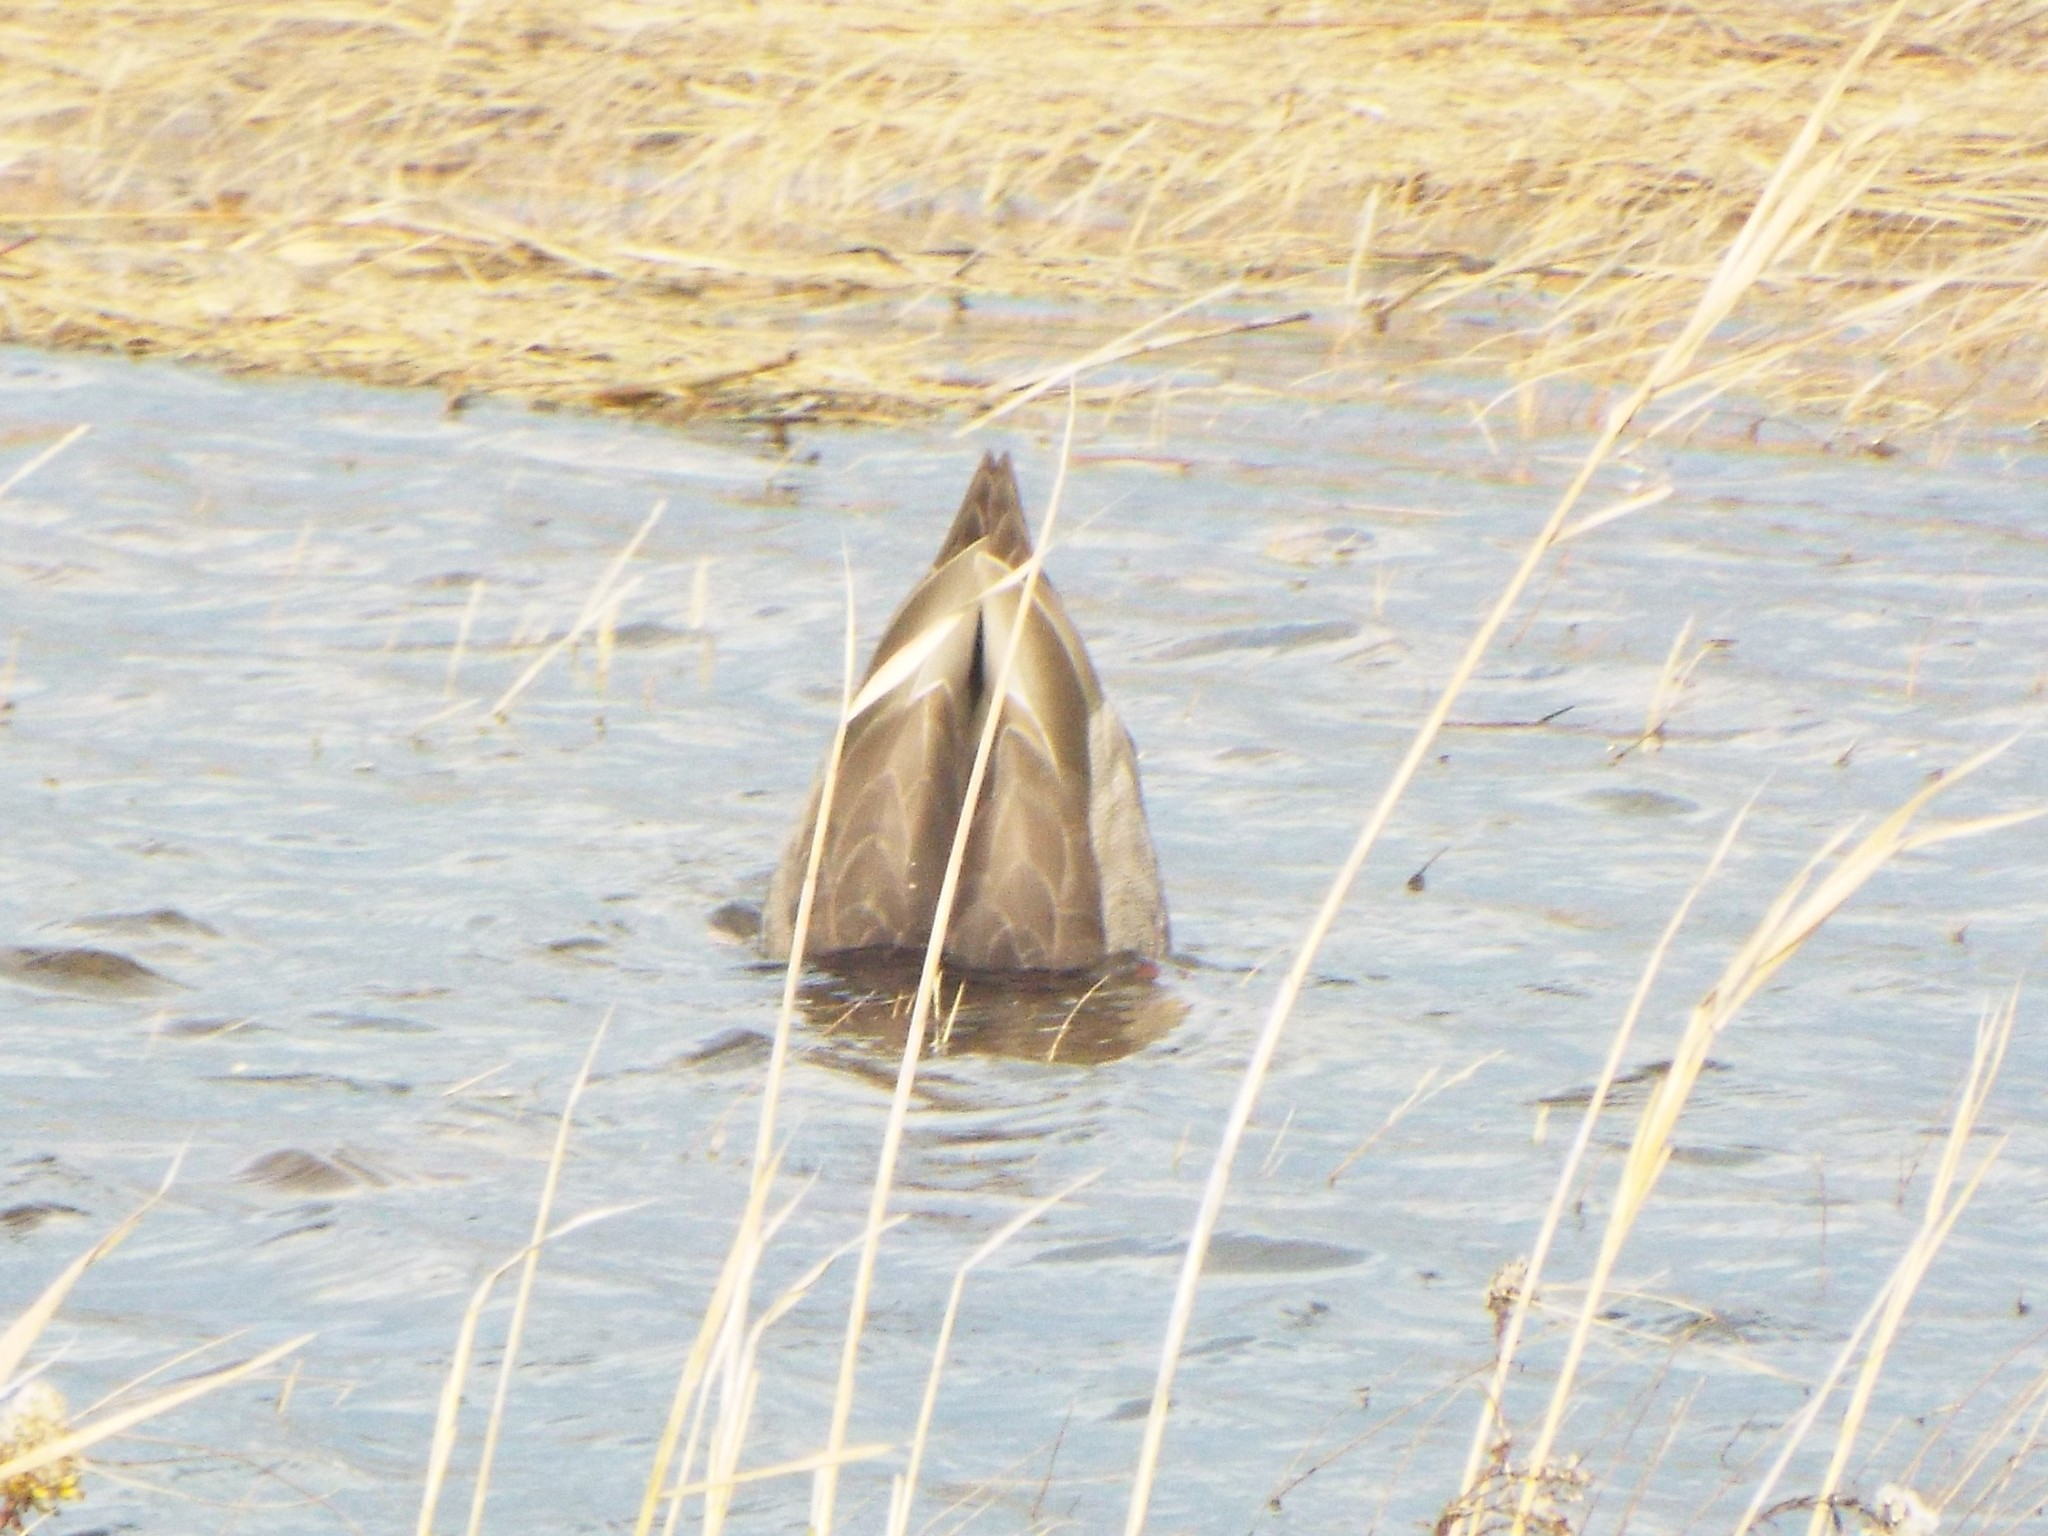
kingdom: Animalia
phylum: Chordata
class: Aves
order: Anseriformes
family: Anatidae
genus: Anas
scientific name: Anas
